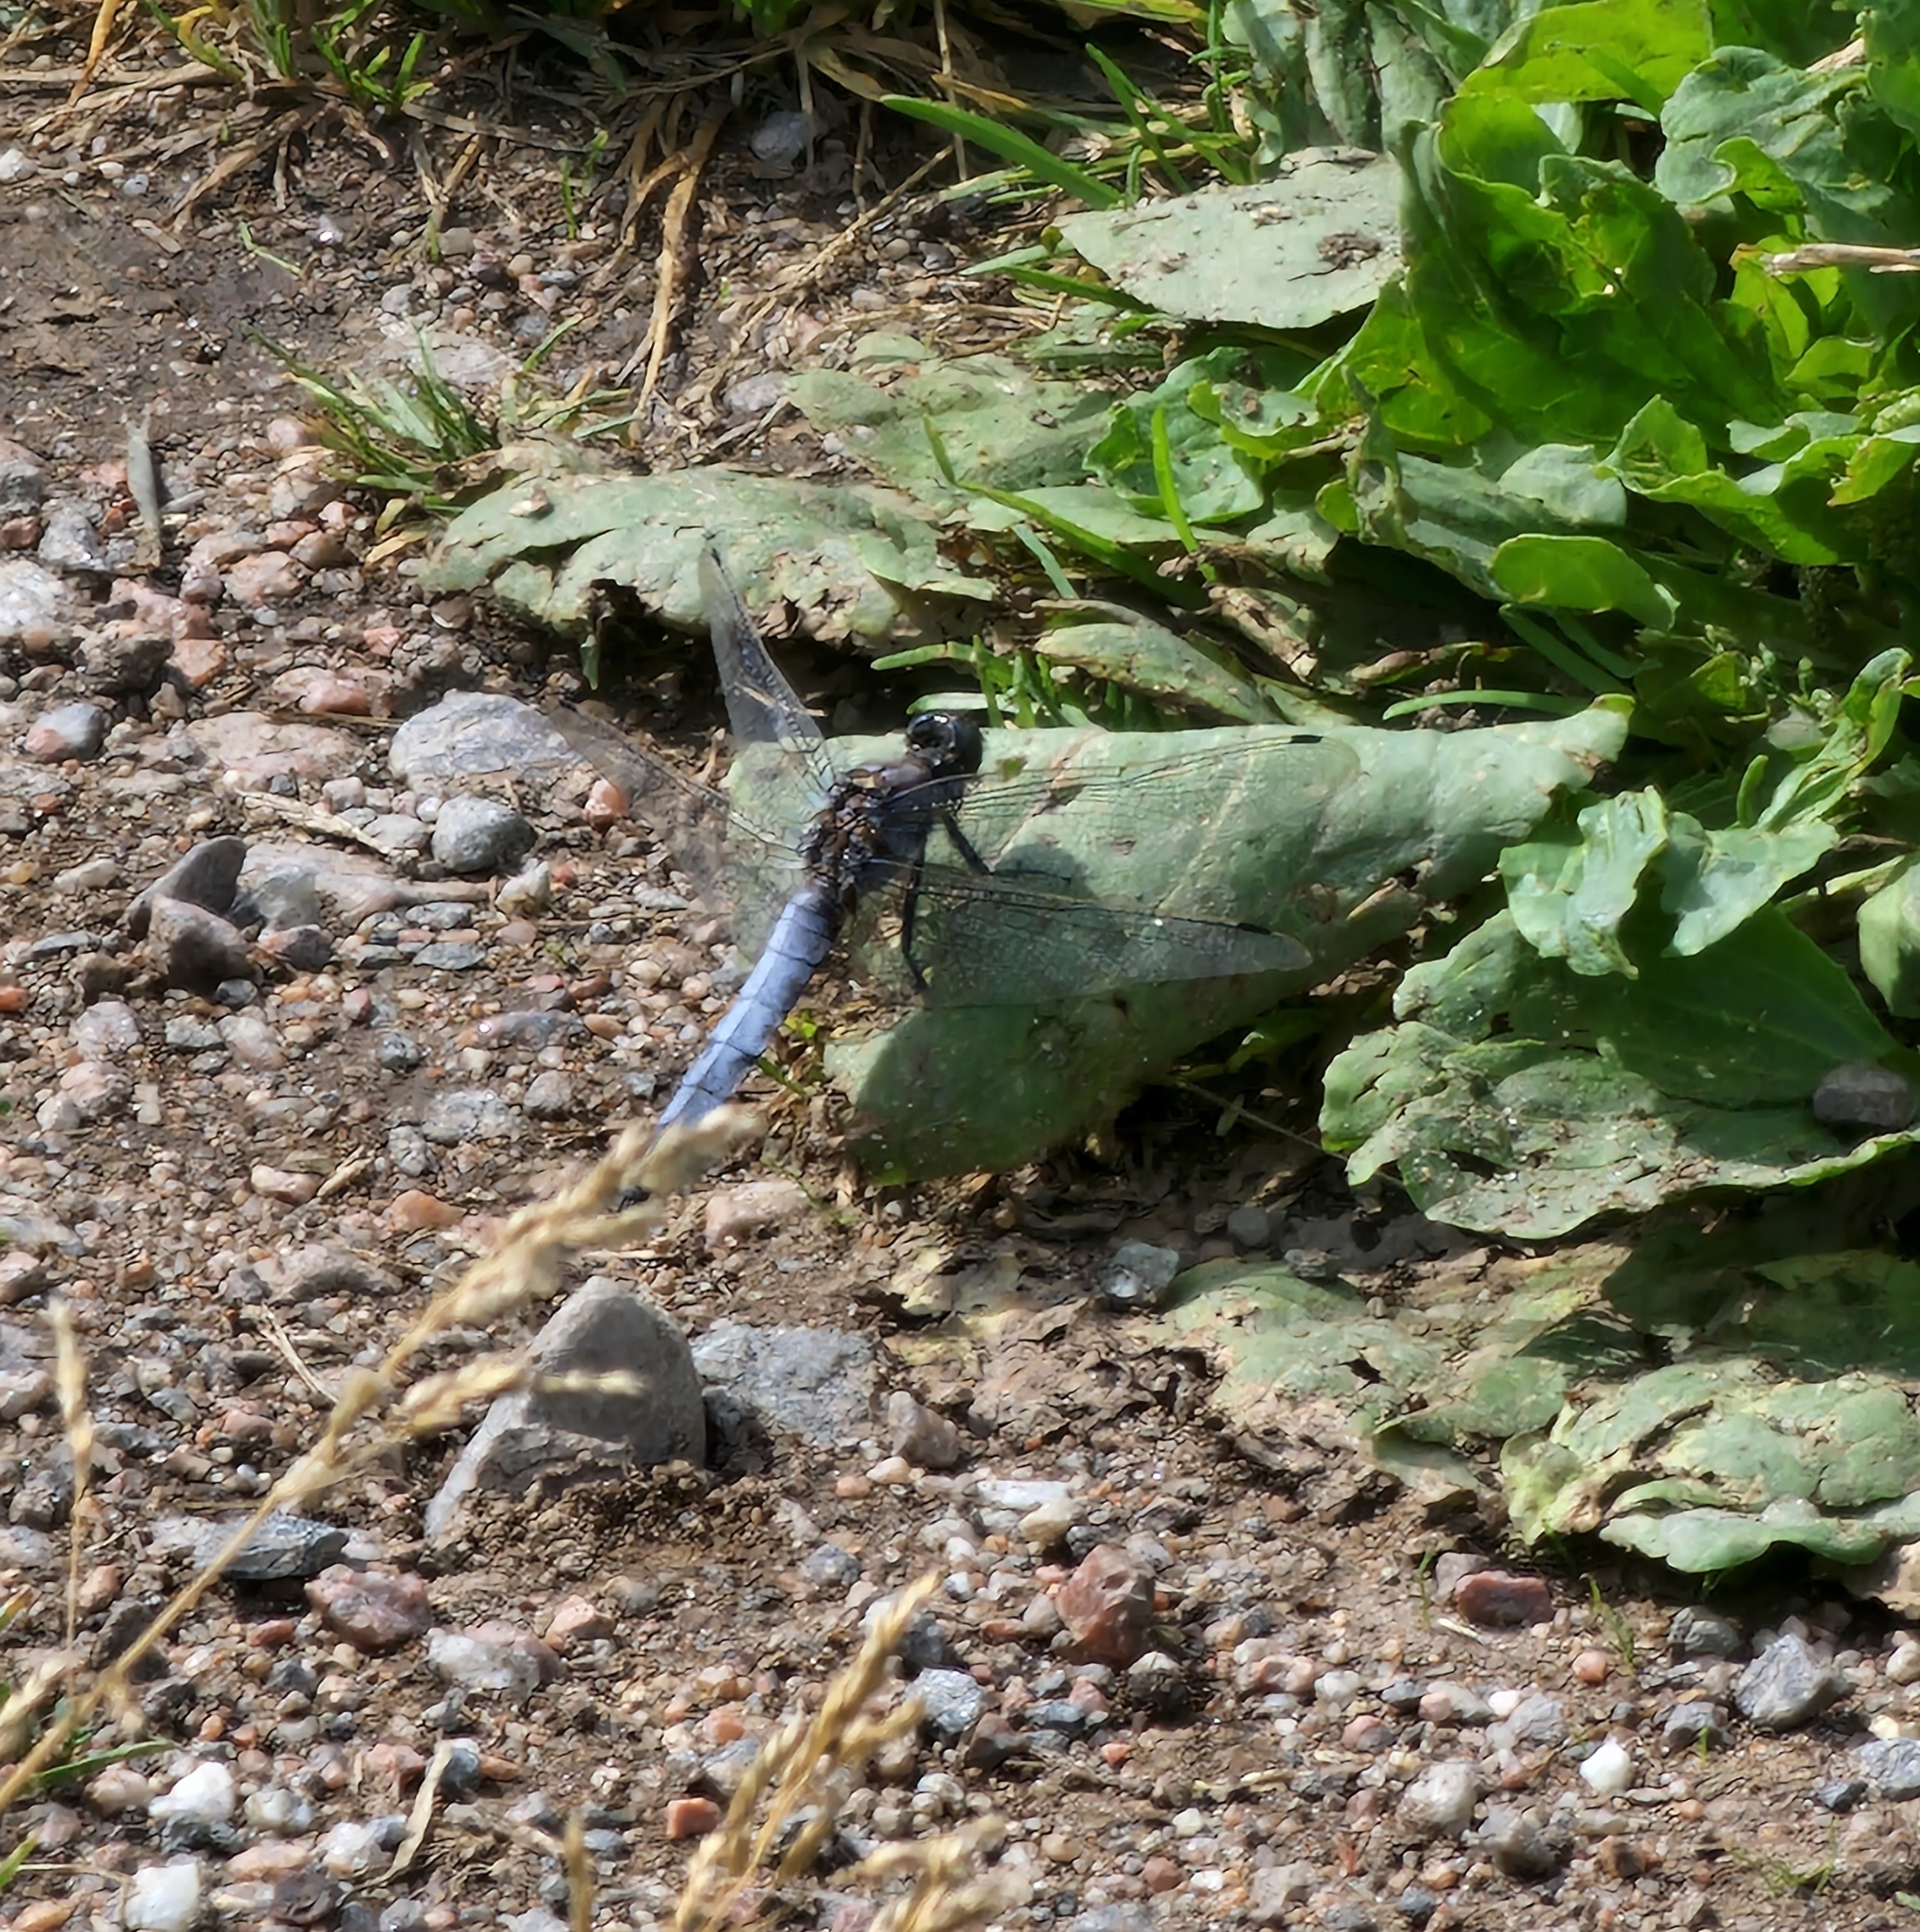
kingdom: Animalia
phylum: Arthropoda
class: Insecta
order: Odonata
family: Libellulidae
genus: Orthetrum
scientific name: Orthetrum cancellatum
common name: Black-tailed skimmer
